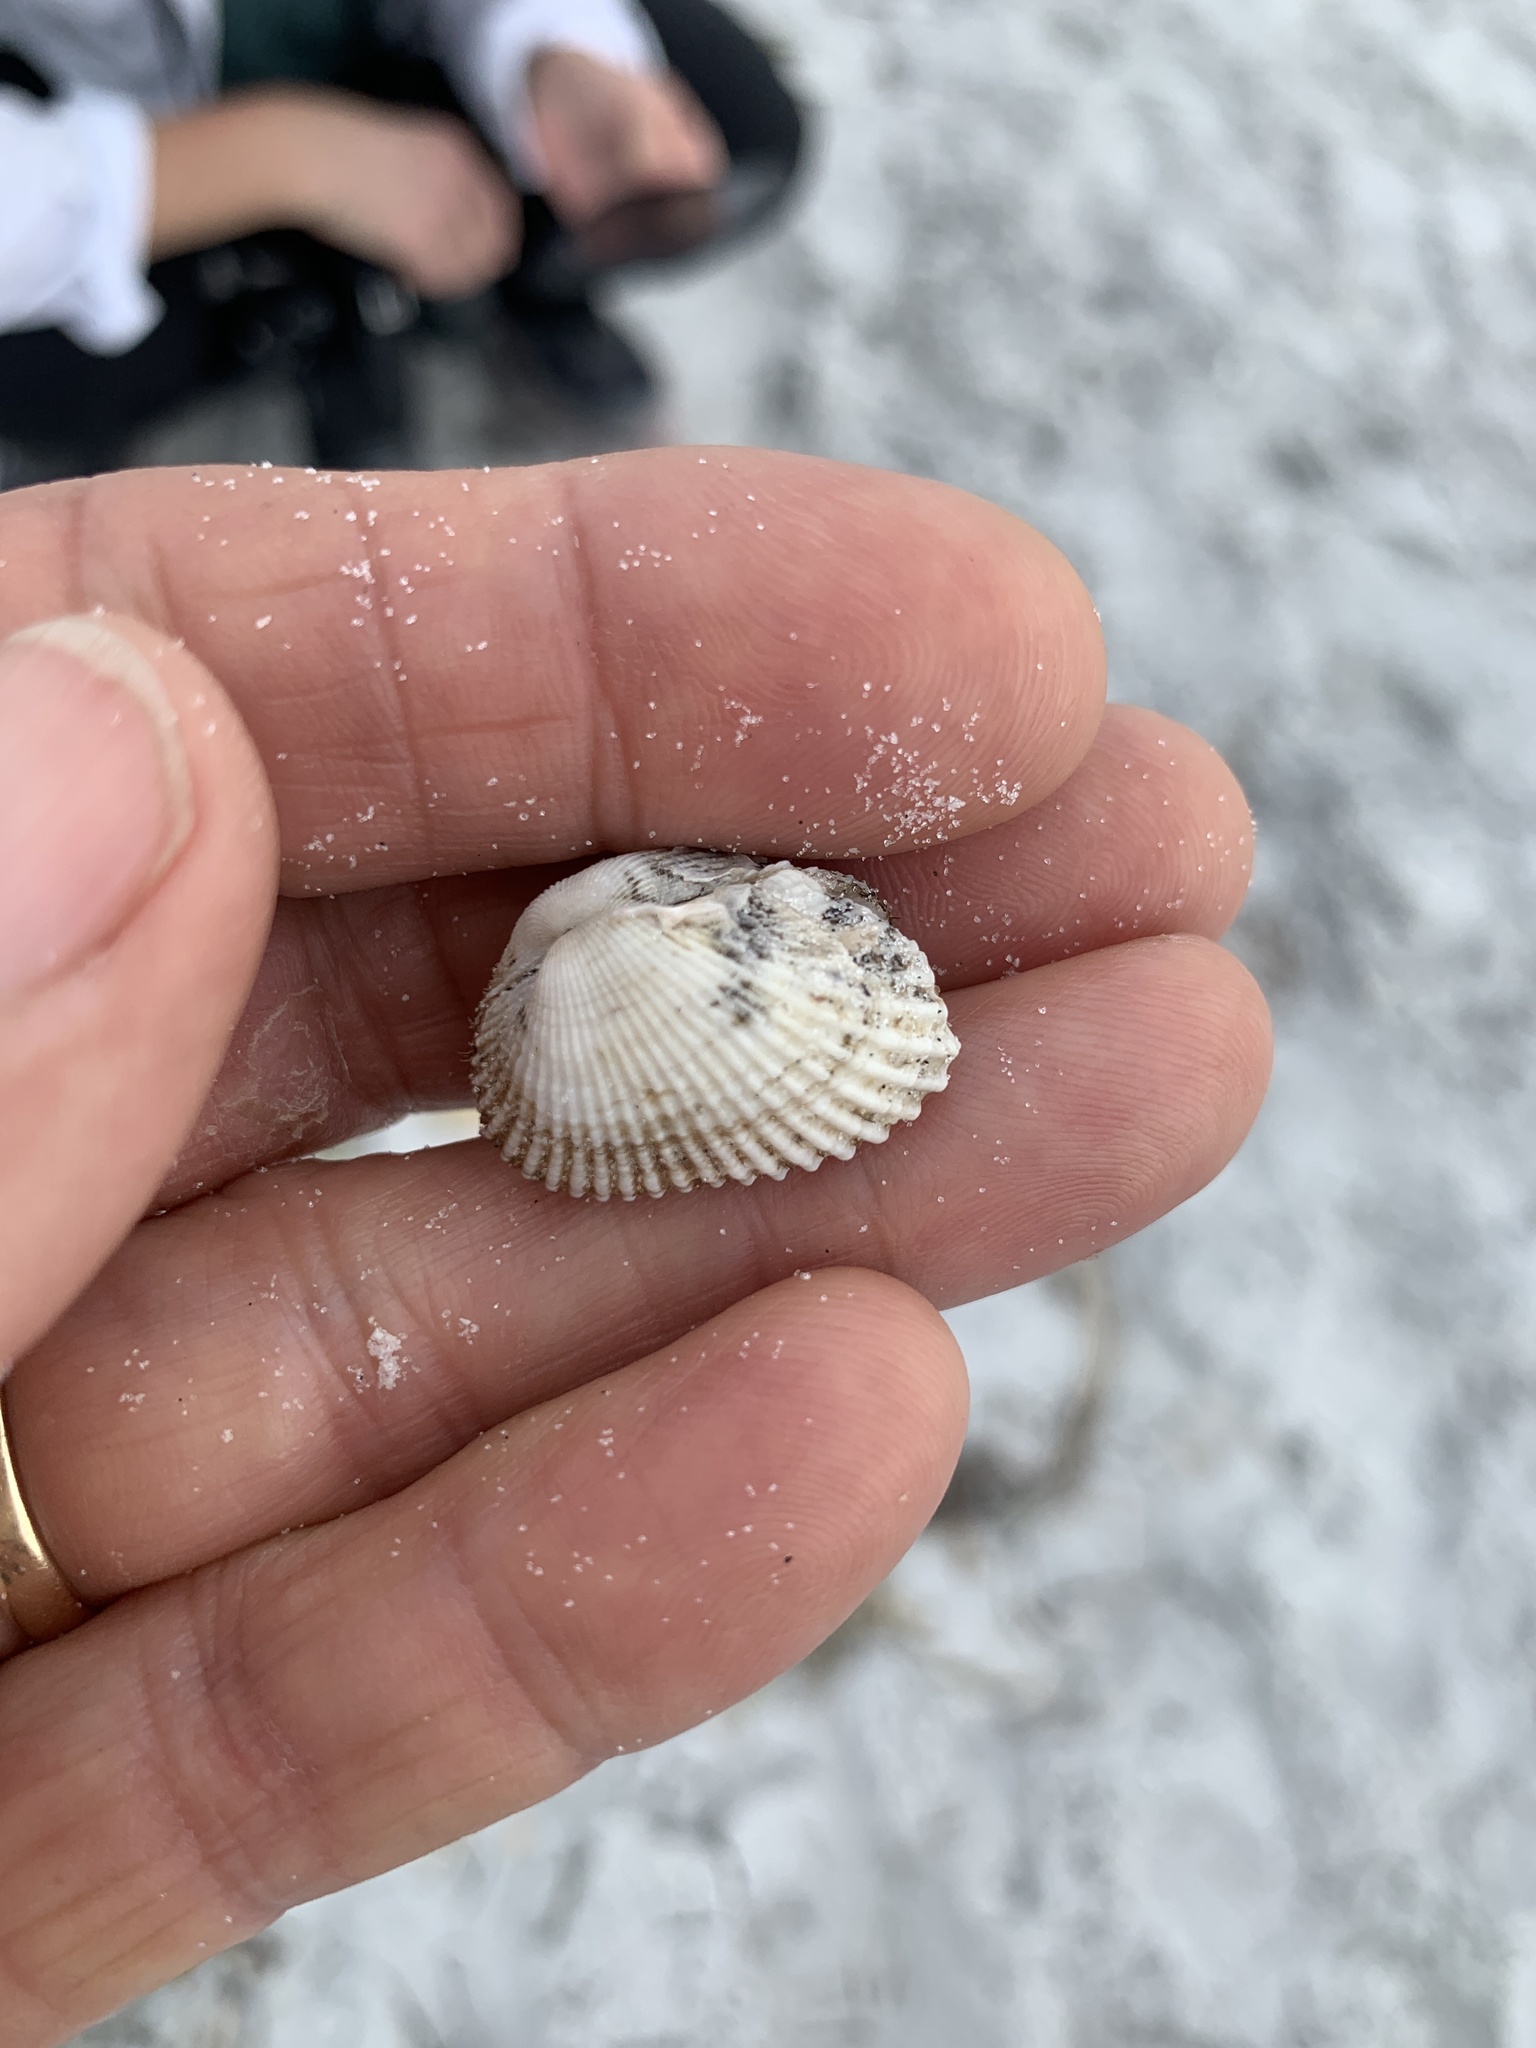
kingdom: Animalia
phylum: Mollusca
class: Bivalvia
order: Arcida
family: Arcidae
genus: Anadara
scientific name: Anadara transversa
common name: Transverse ark
